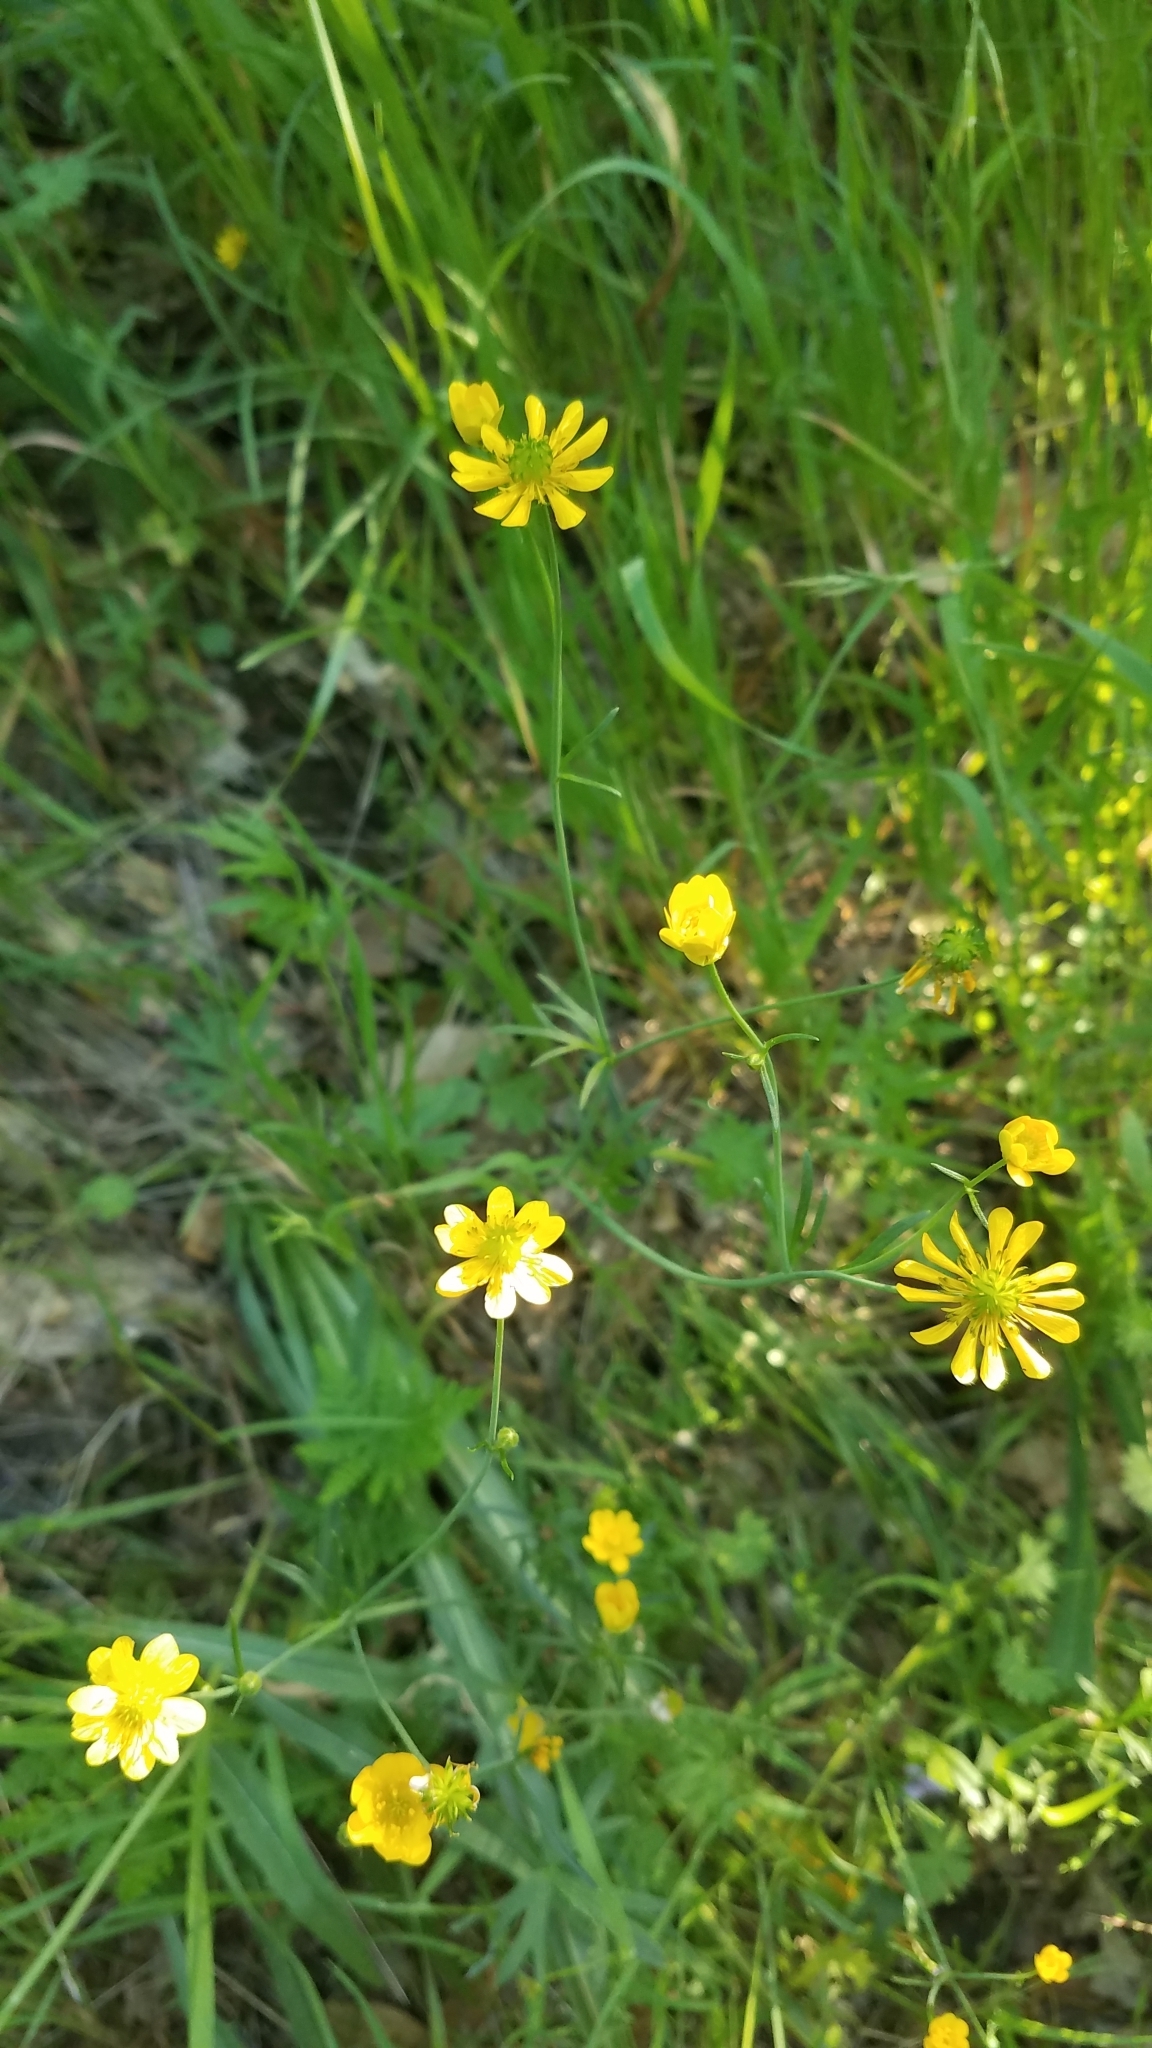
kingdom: Plantae
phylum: Tracheophyta
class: Magnoliopsida
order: Ranunculales
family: Ranunculaceae
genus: Ranunculus
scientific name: Ranunculus californicus
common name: California buttercup
